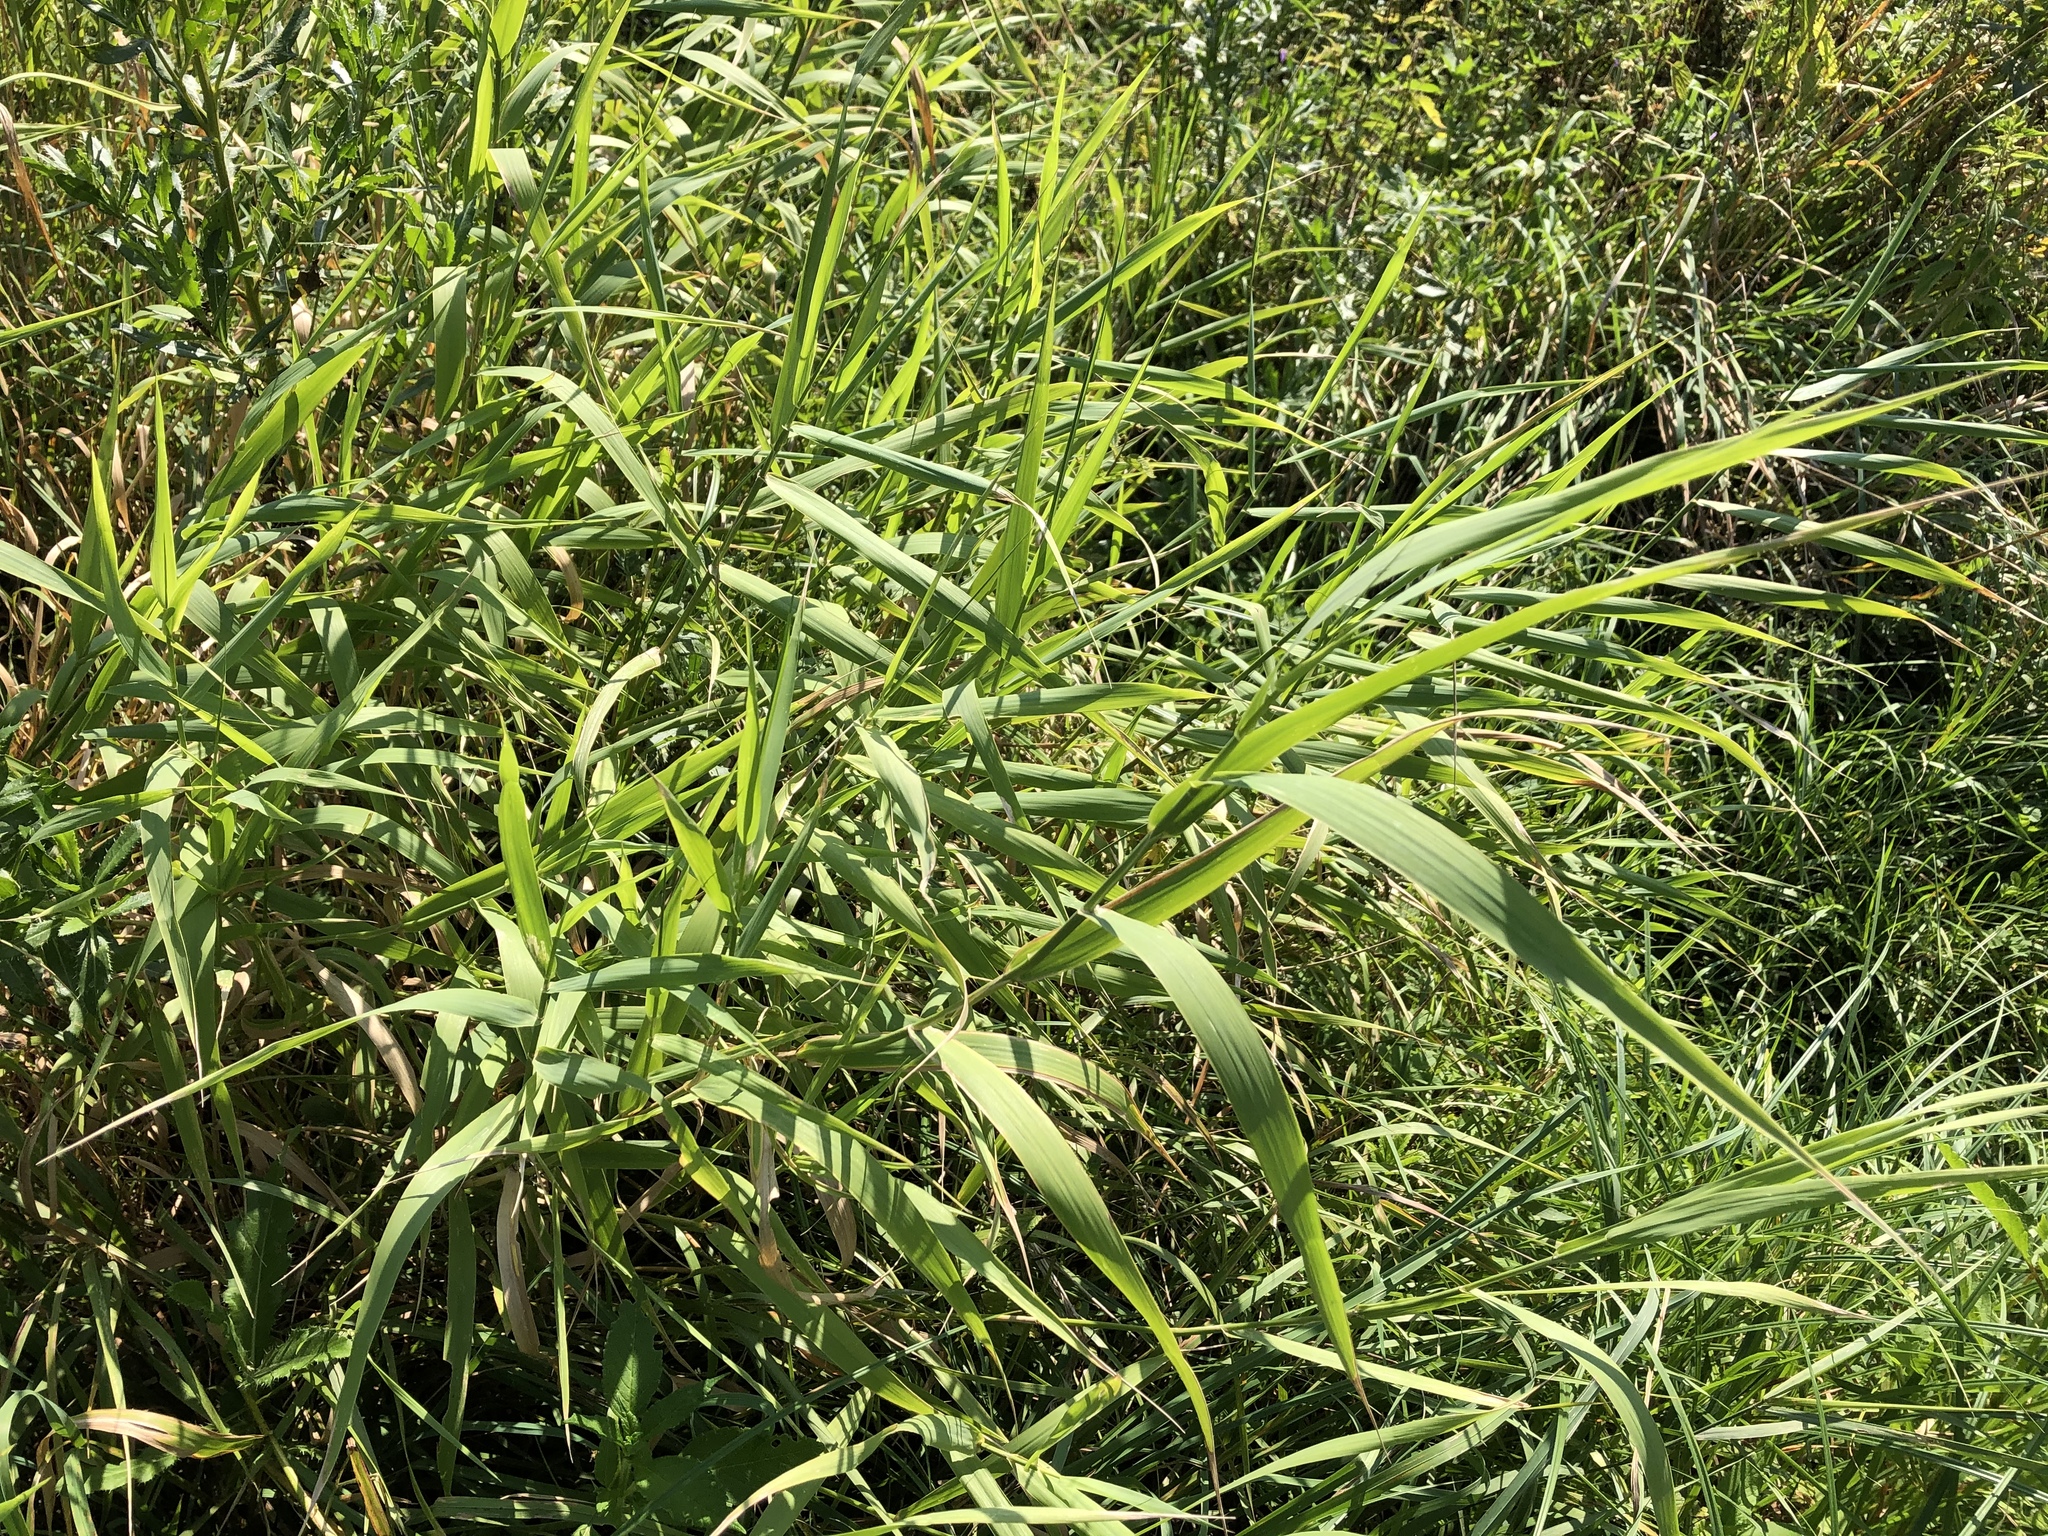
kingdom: Plantae
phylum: Tracheophyta
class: Liliopsida
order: Poales
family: Poaceae
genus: Phragmites
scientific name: Phragmites australis
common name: Common reed
